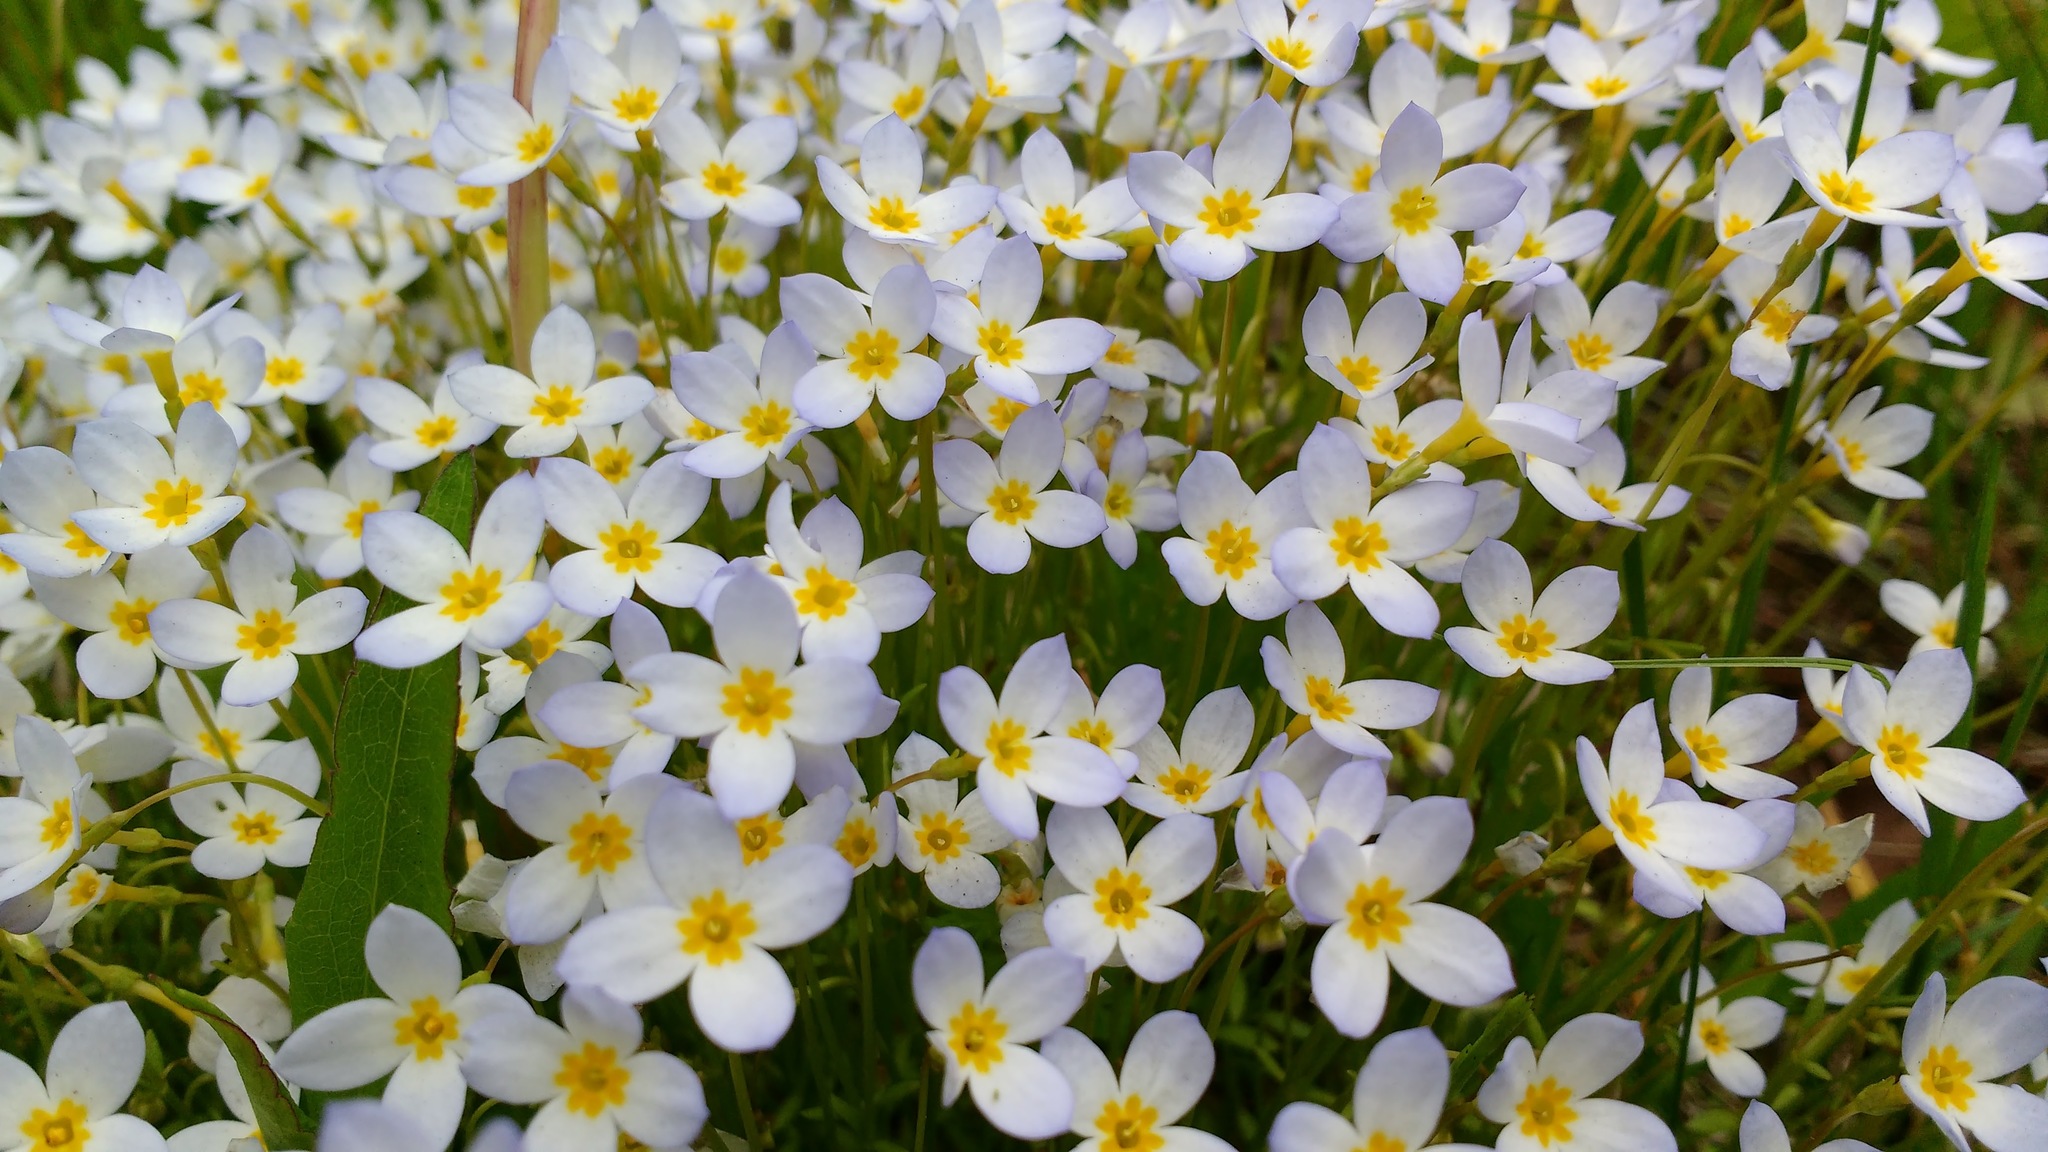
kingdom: Plantae
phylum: Tracheophyta
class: Magnoliopsida
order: Gentianales
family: Rubiaceae
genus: Houstonia
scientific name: Houstonia caerulea
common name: Bluets
